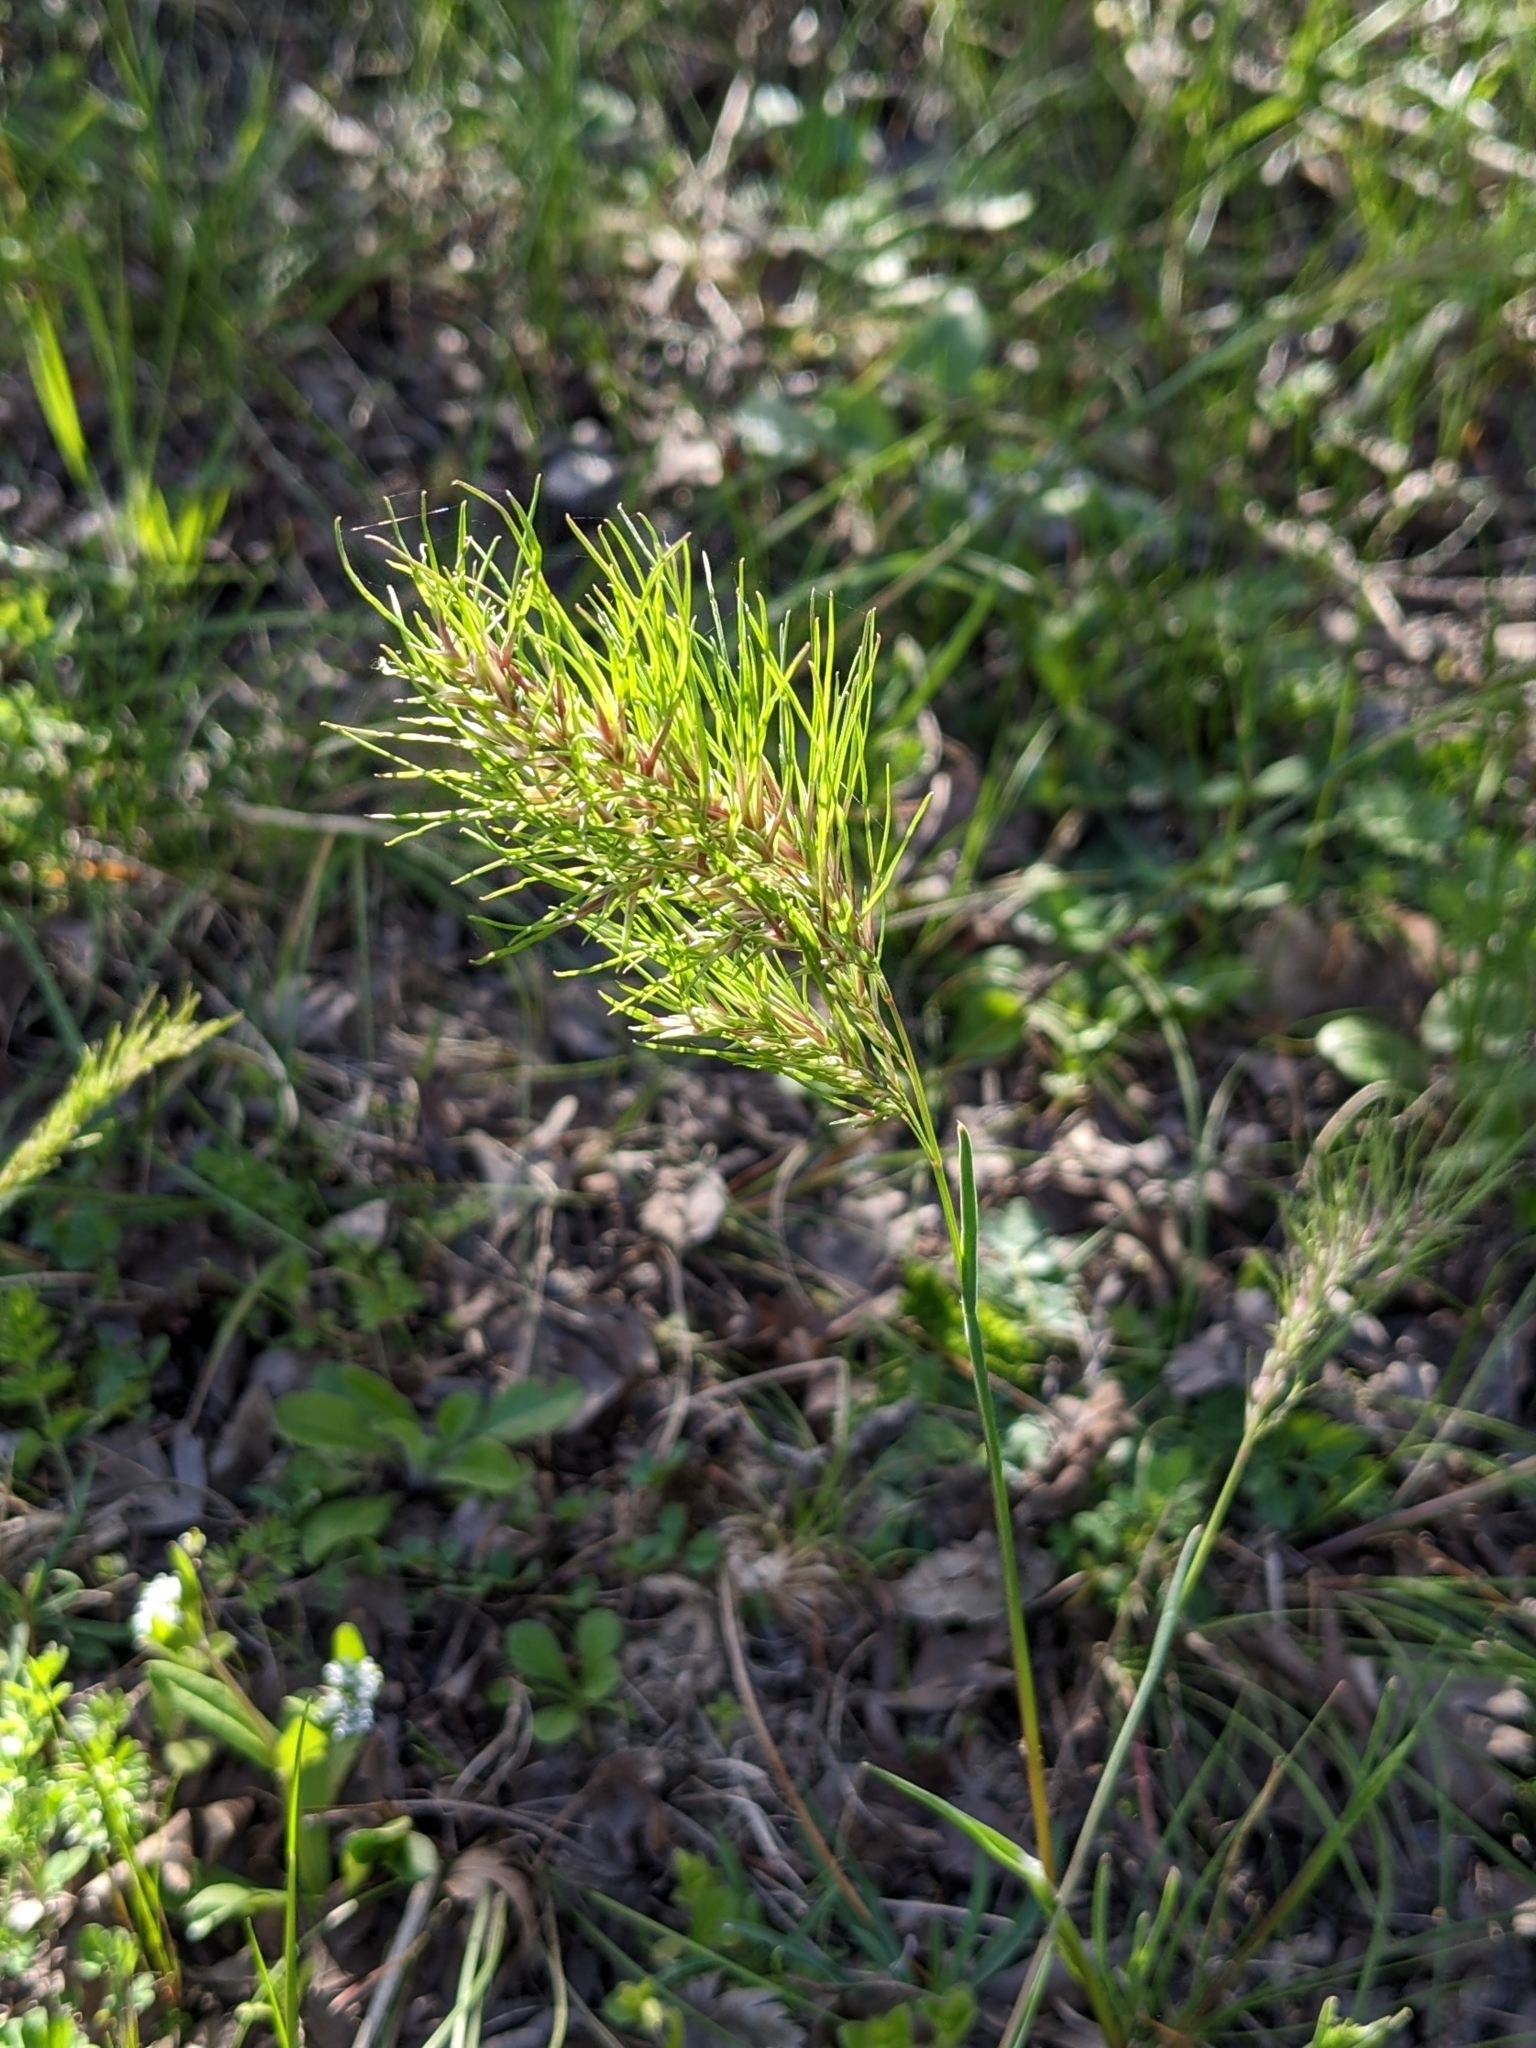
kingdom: Plantae
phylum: Tracheophyta
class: Liliopsida
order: Poales
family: Poaceae
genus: Poa
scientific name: Poa bulbosa
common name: Bulbous bluegrass
